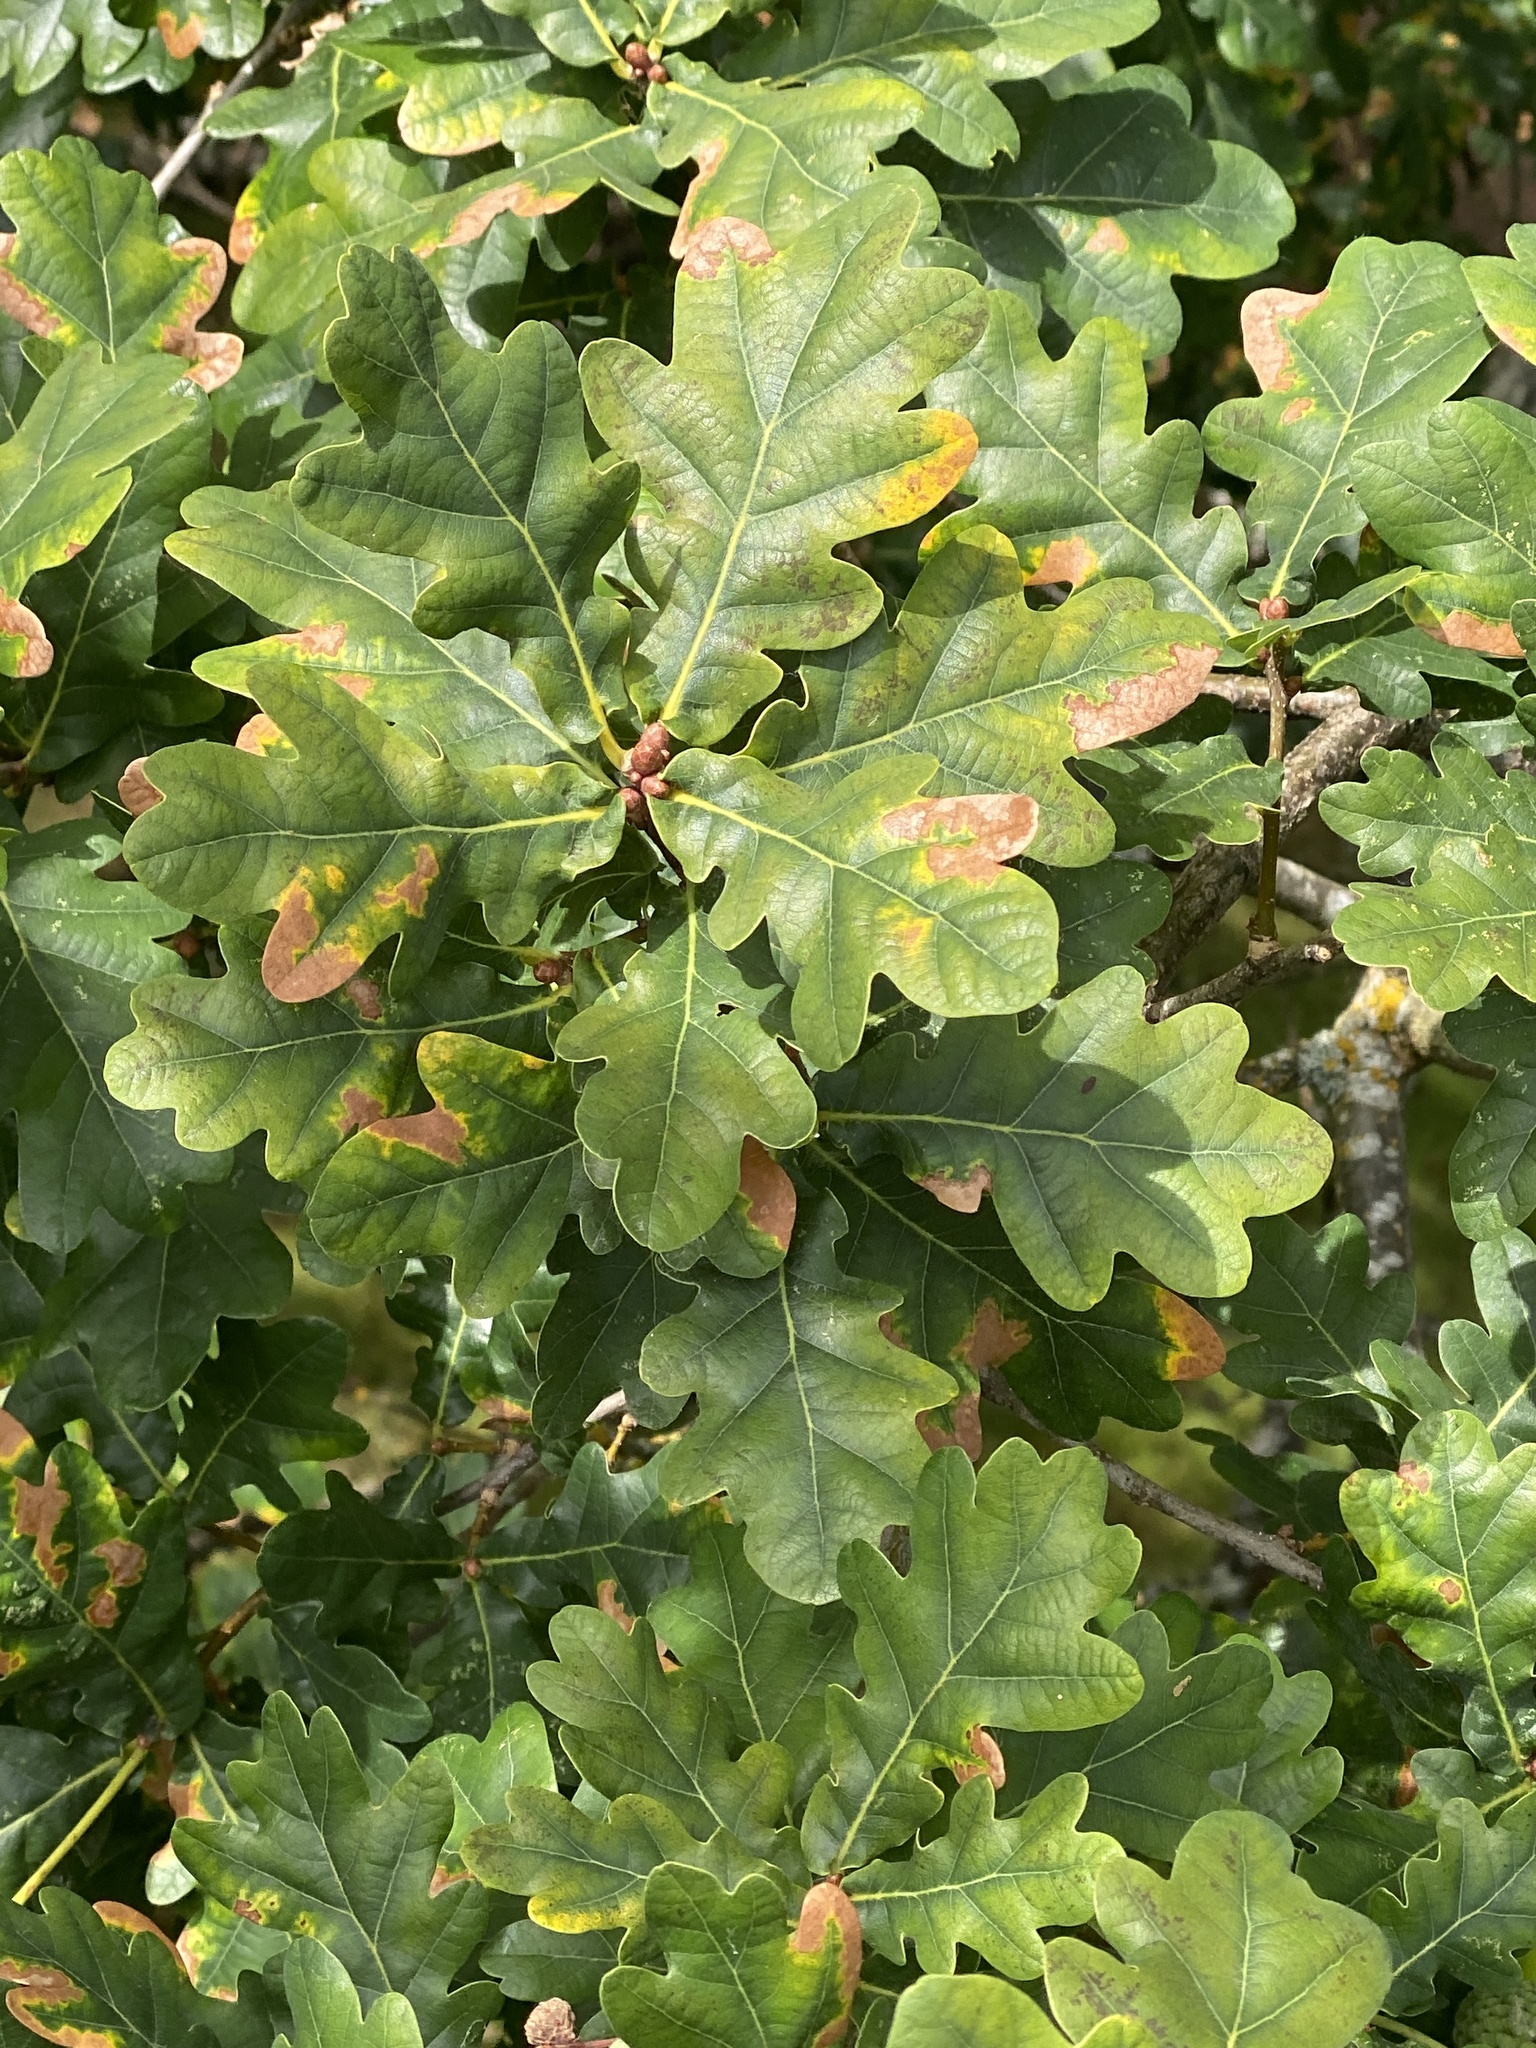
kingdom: Plantae
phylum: Tracheophyta
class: Magnoliopsida
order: Fagales
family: Fagaceae
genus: Quercus
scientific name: Quercus robur
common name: Pedunculate oak
